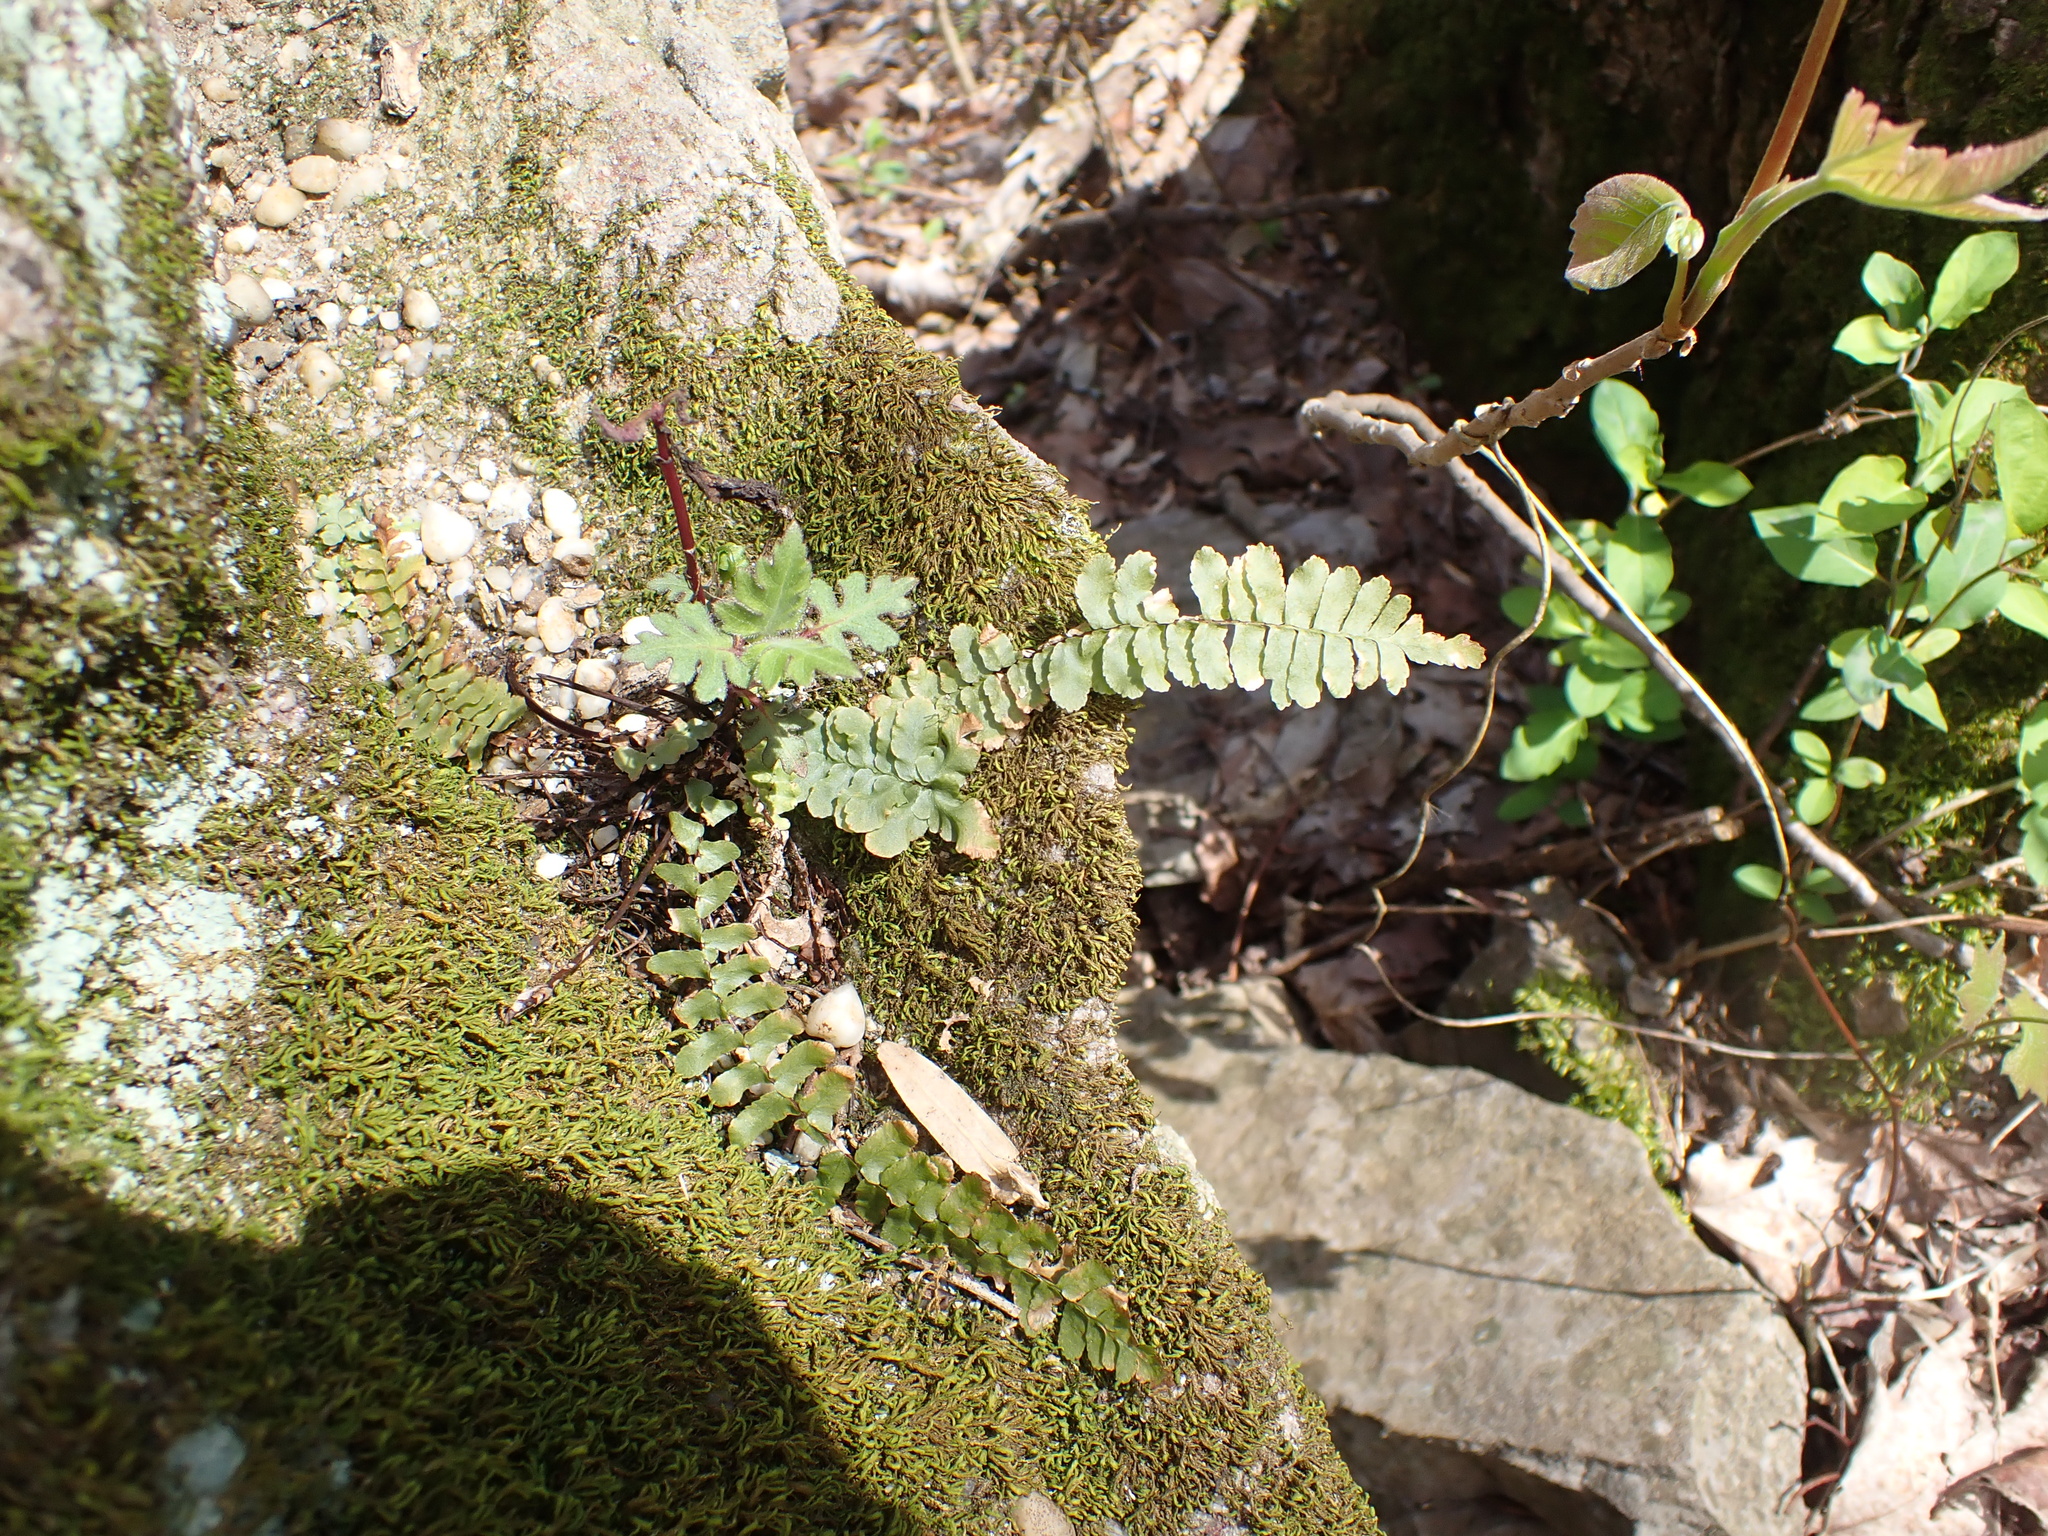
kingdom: Plantae
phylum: Tracheophyta
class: Polypodiopsida
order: Polypodiales
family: Aspleniaceae
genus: Asplenium
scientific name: Asplenium platyneuron
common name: Ebony spleenwort
